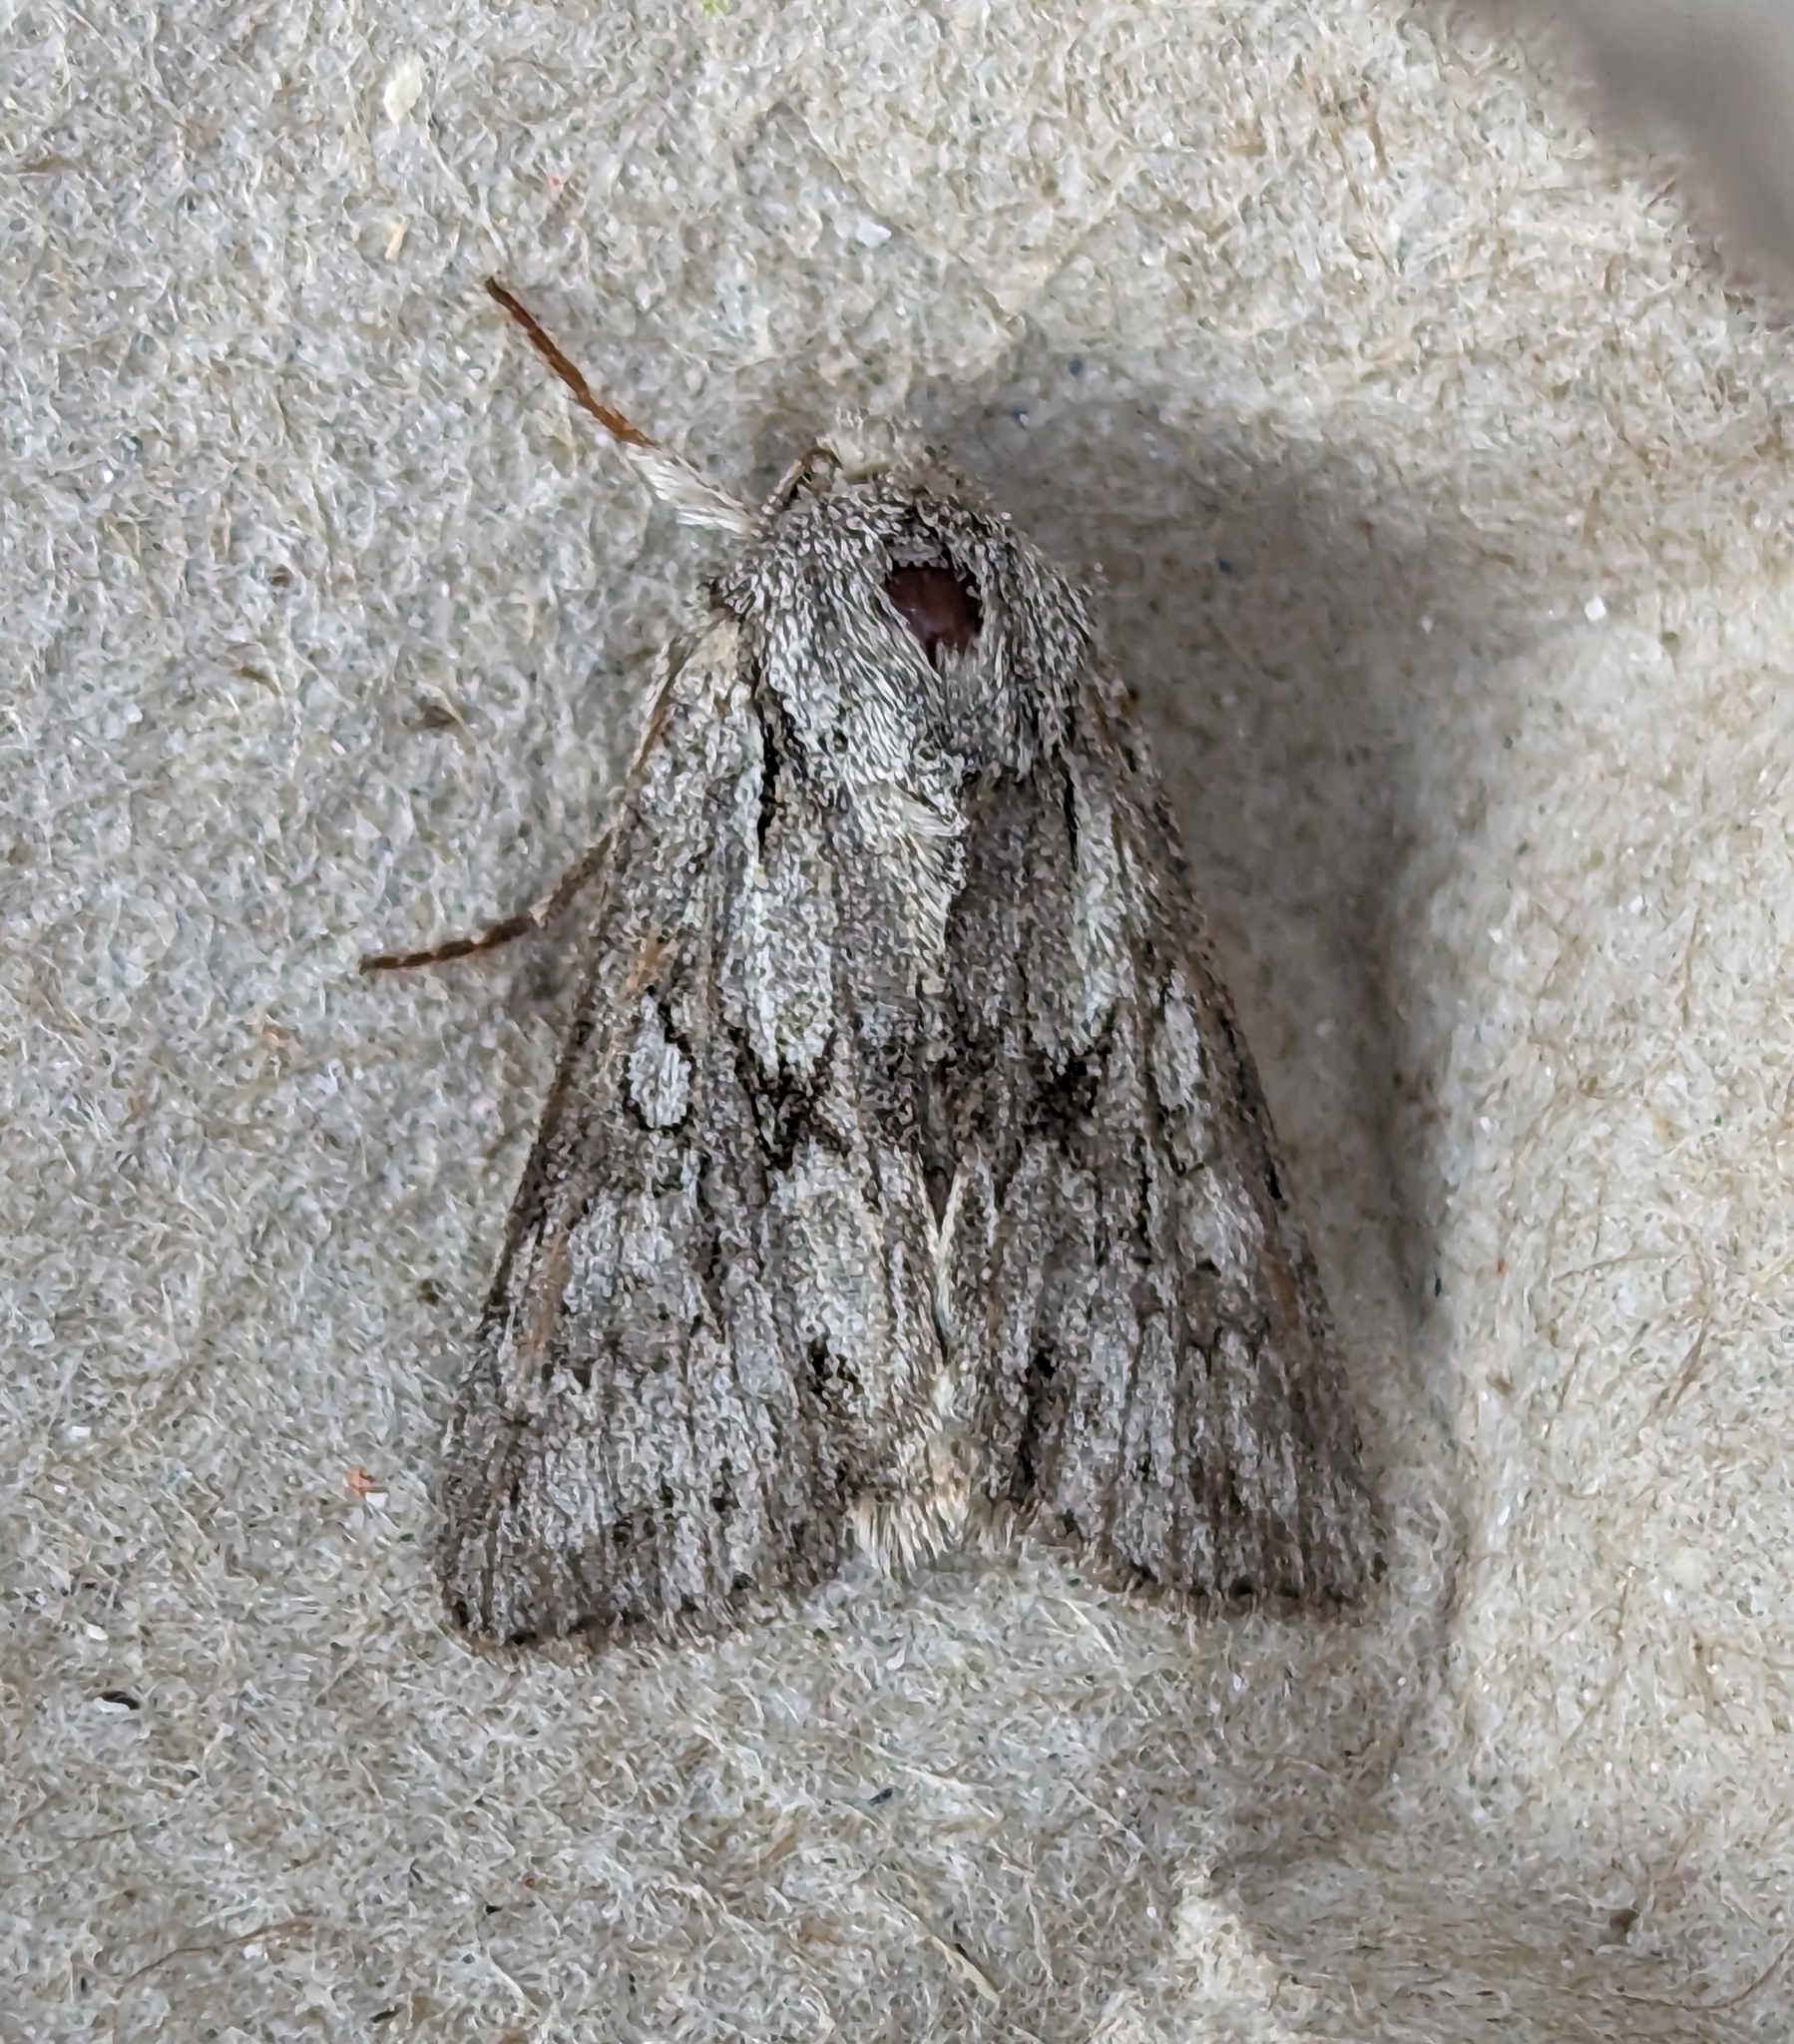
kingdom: Animalia
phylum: Arthropoda
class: Insecta
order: Lepidoptera
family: Noctuidae
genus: Lacinipolia
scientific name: Lacinipolia patalis
